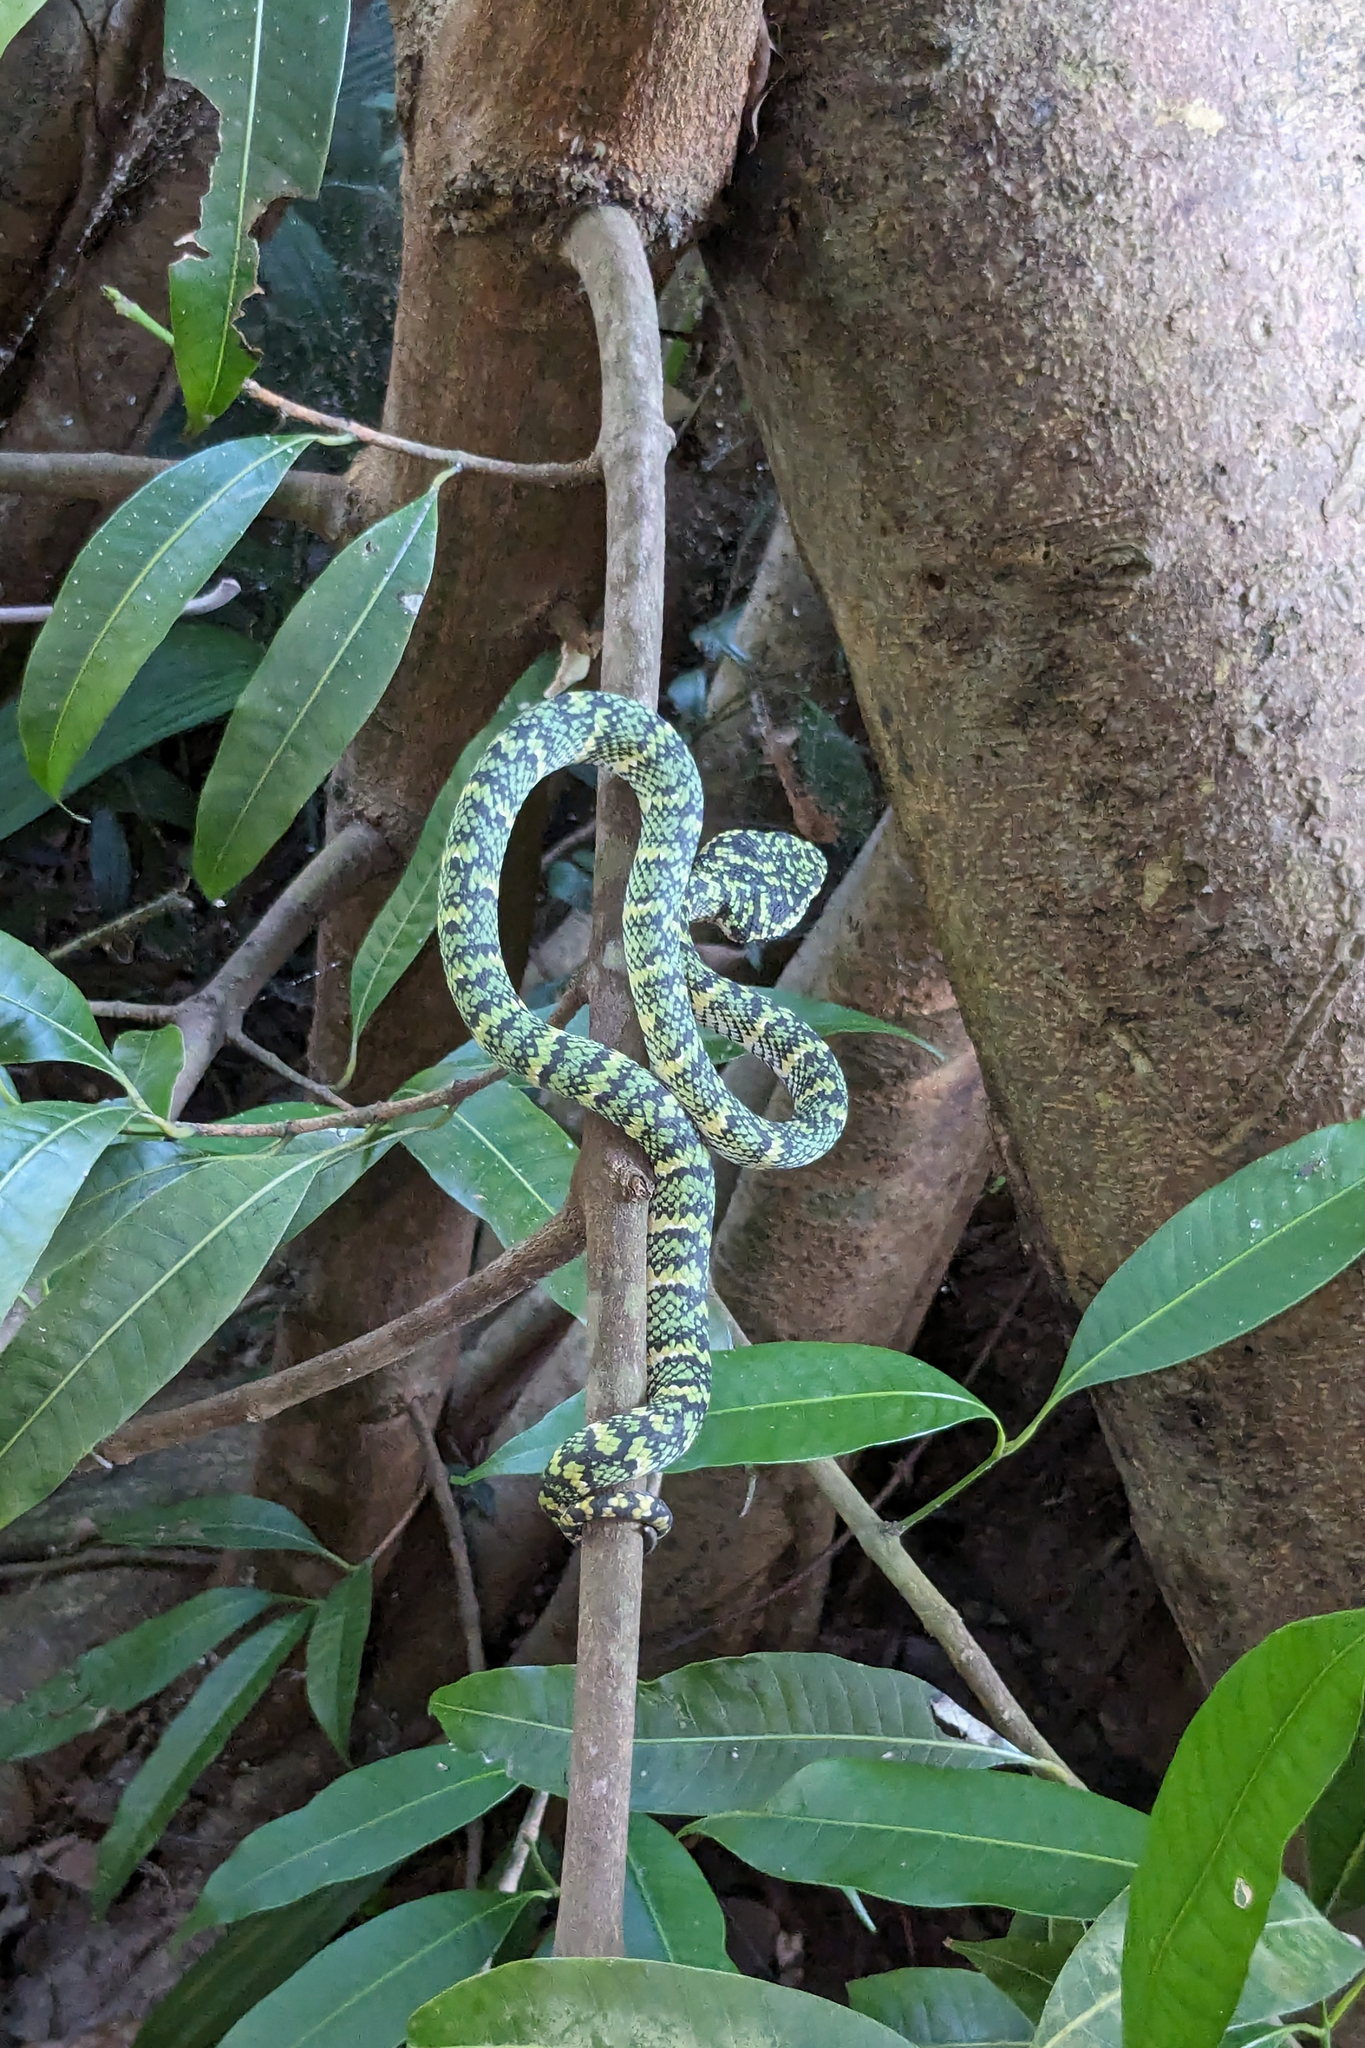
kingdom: Animalia
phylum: Chordata
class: Squamata
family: Viperidae
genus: Tropidolaemus
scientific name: Tropidolaemus wagleri
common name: Wagler's palm viper
